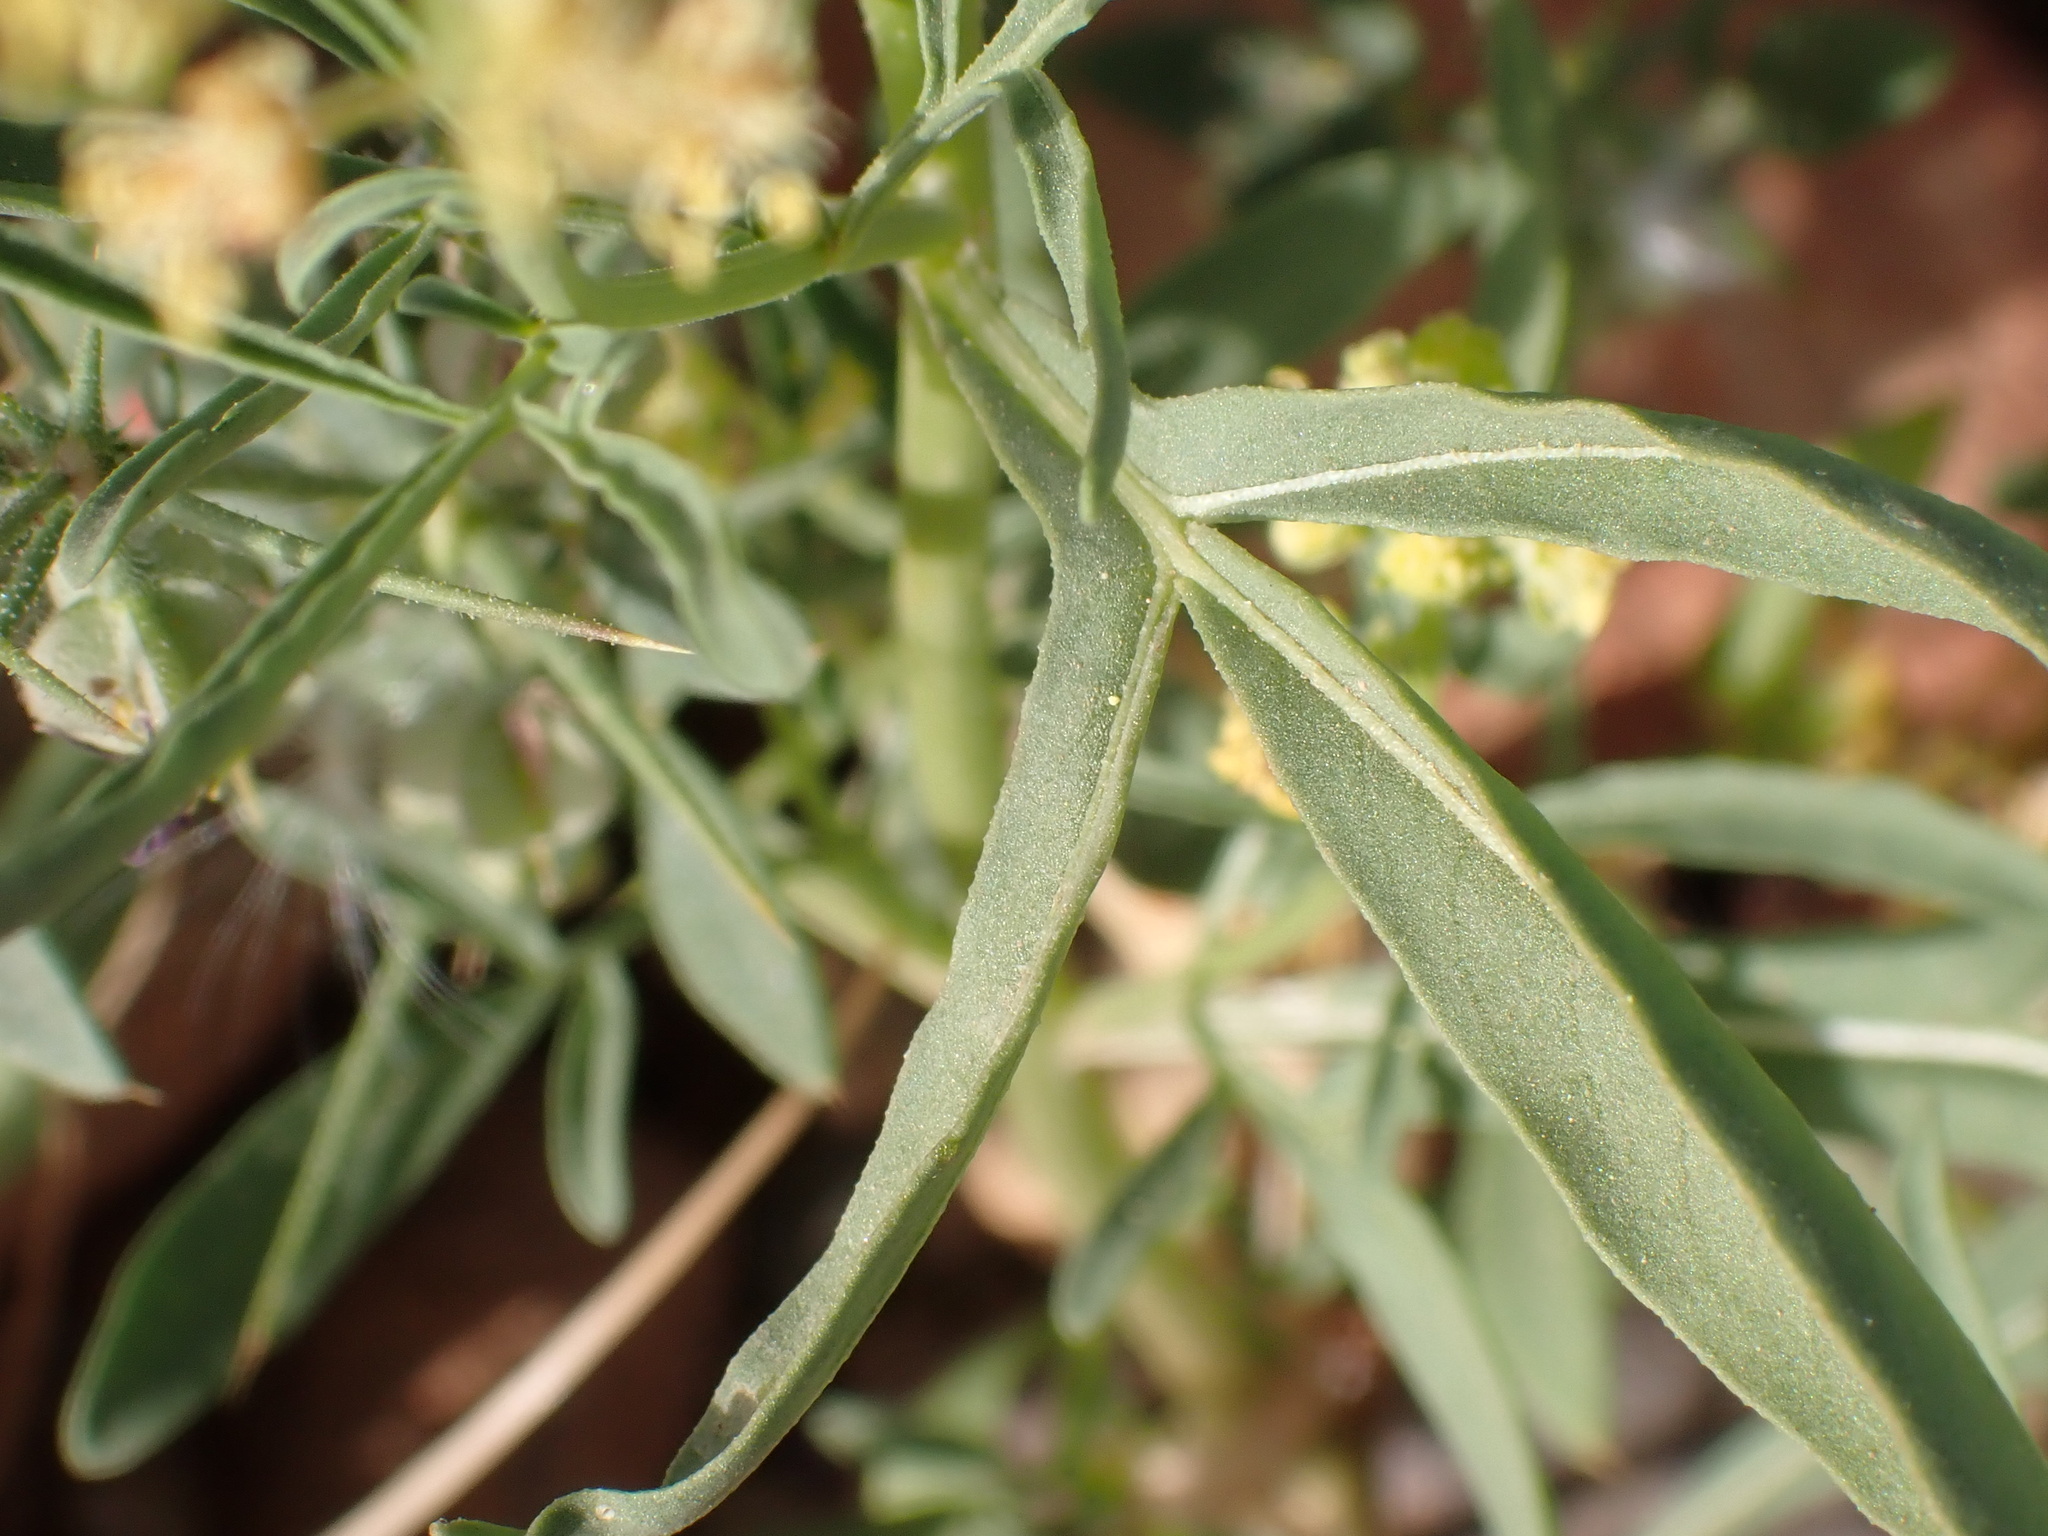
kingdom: Plantae
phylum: Tracheophyta
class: Magnoliopsida
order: Brassicales
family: Resedaceae
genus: Reseda
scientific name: Reseda lutea
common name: Wild mignonette
